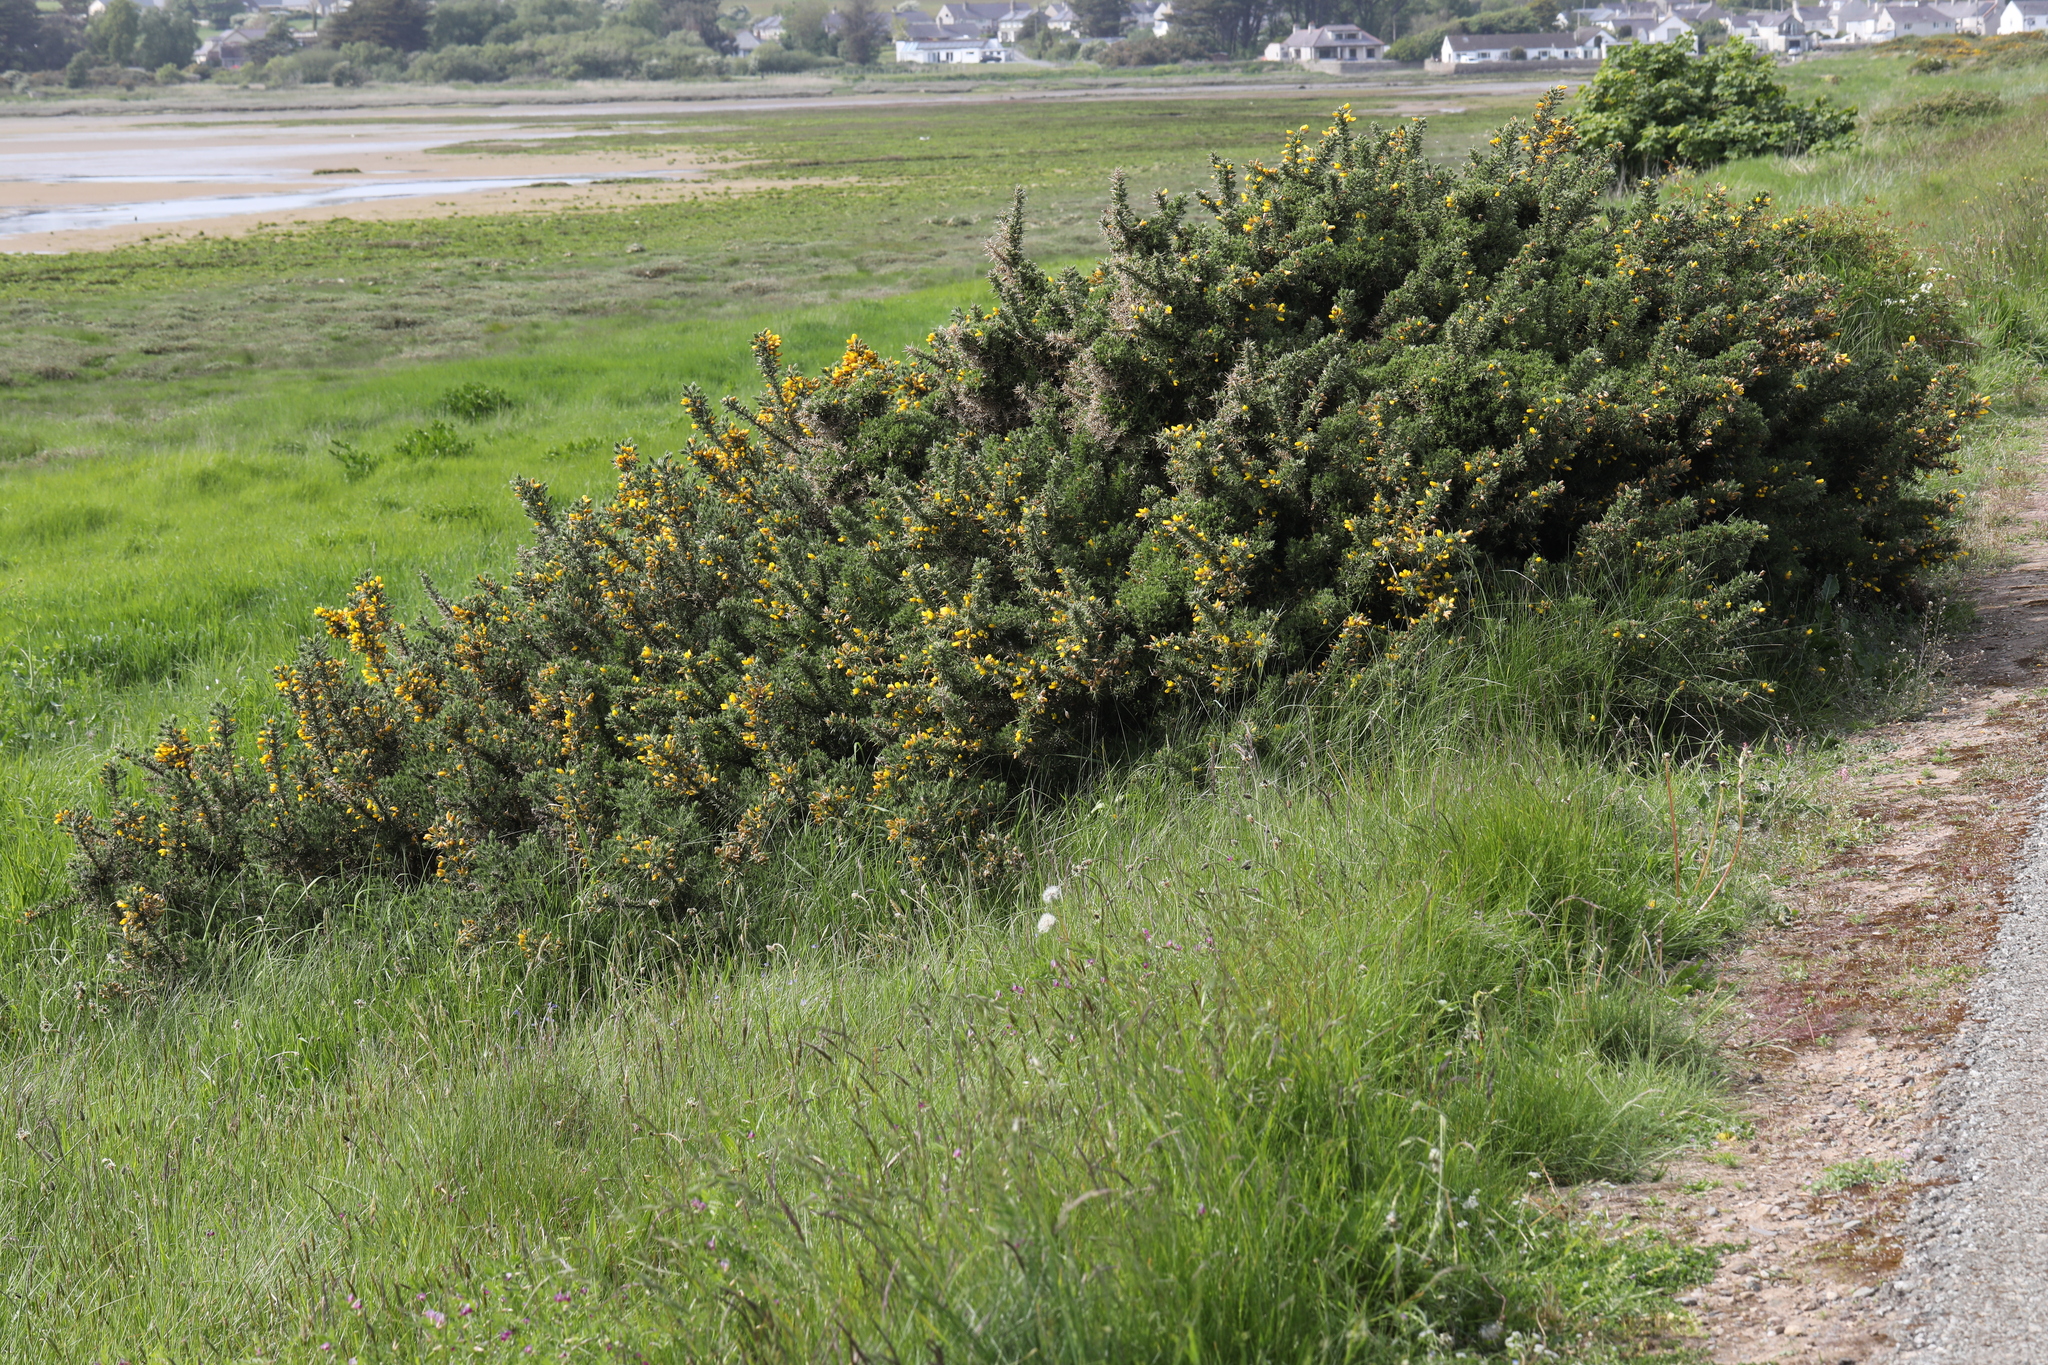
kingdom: Plantae
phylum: Tracheophyta
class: Magnoliopsida
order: Fabales
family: Fabaceae
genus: Ulex
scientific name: Ulex europaeus
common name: Common gorse
